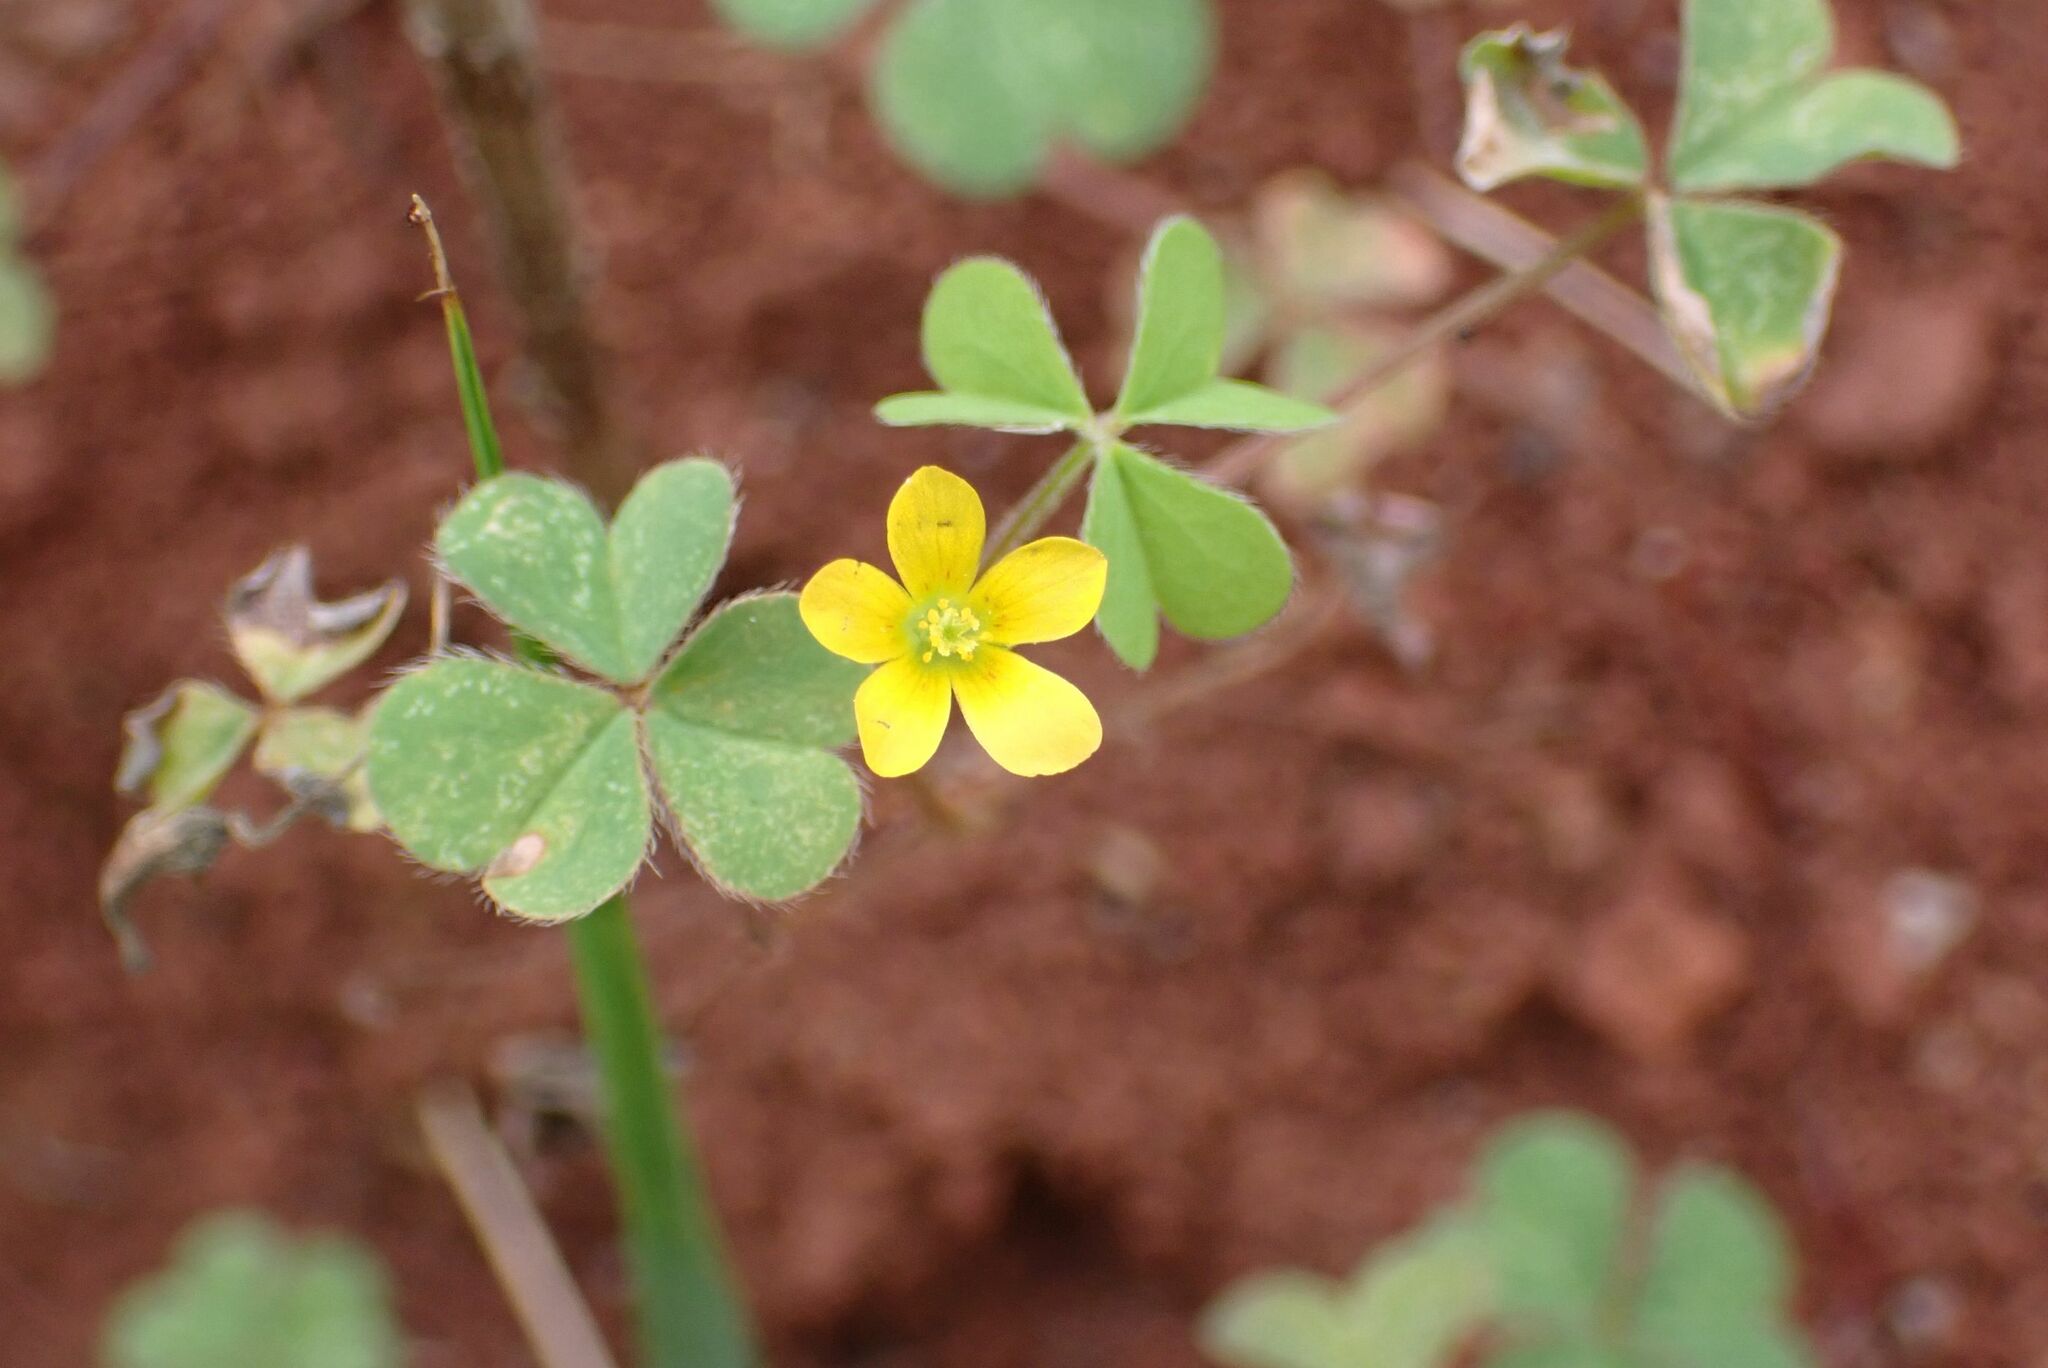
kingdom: Plantae
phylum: Tracheophyta
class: Magnoliopsida
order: Oxalidales
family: Oxalidaceae
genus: Oxalis
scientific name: Oxalis corniculata
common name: Procumbent yellow-sorrel
